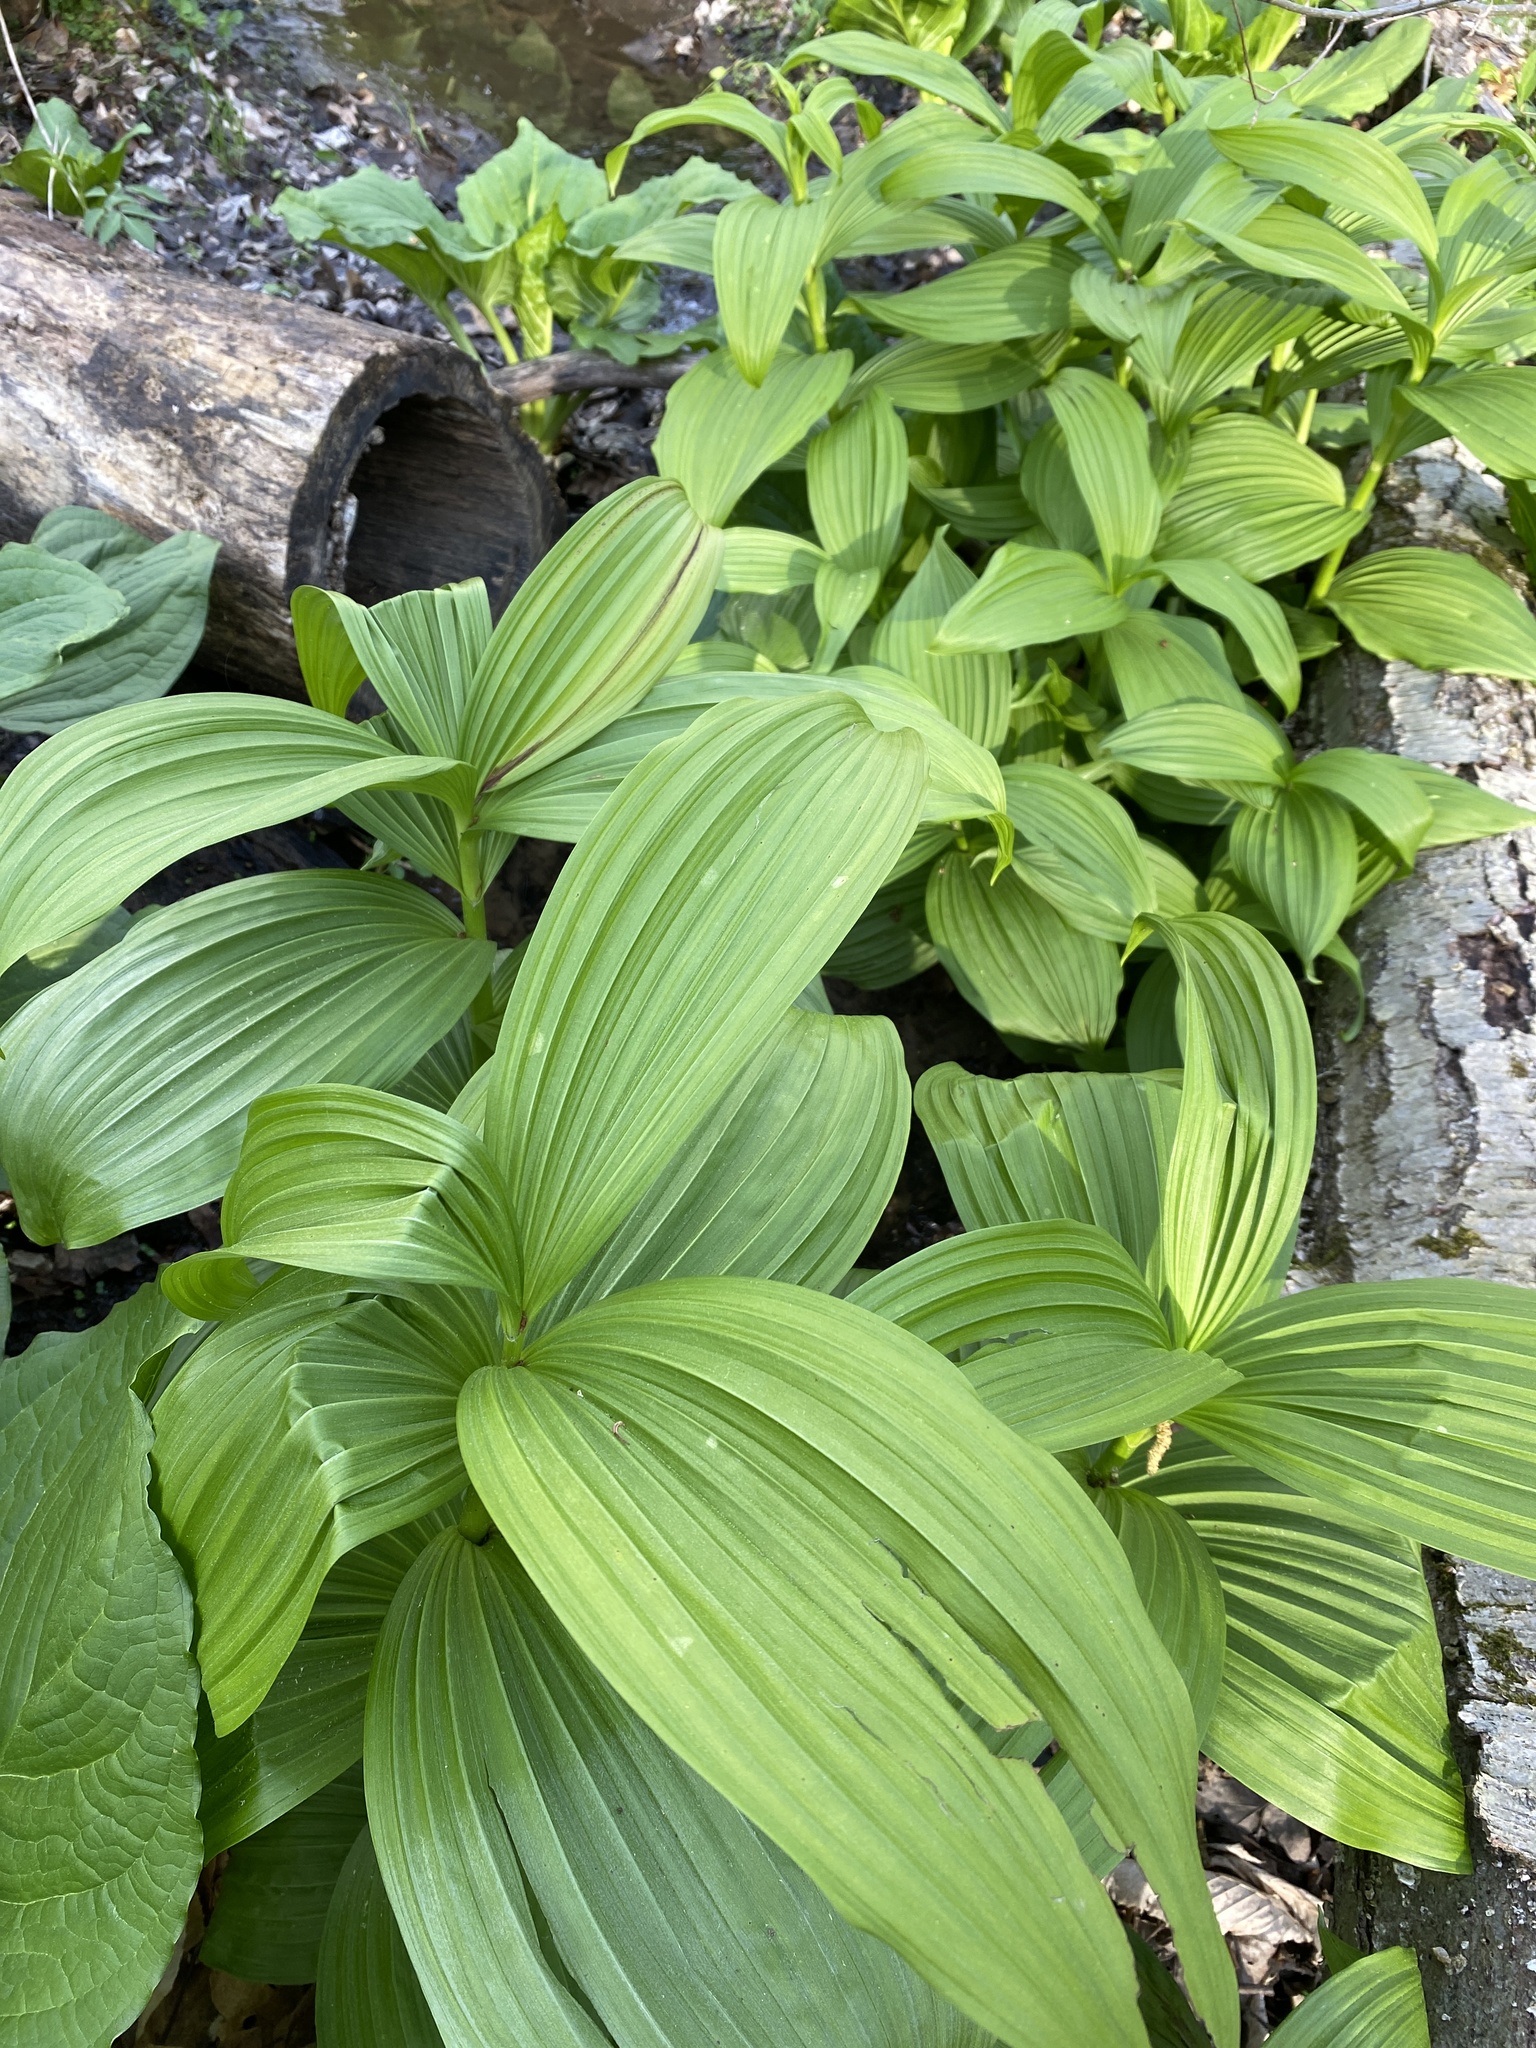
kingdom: Plantae
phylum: Tracheophyta
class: Liliopsida
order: Liliales
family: Melanthiaceae
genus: Veratrum
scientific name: Veratrum viride
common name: American false hellebore
